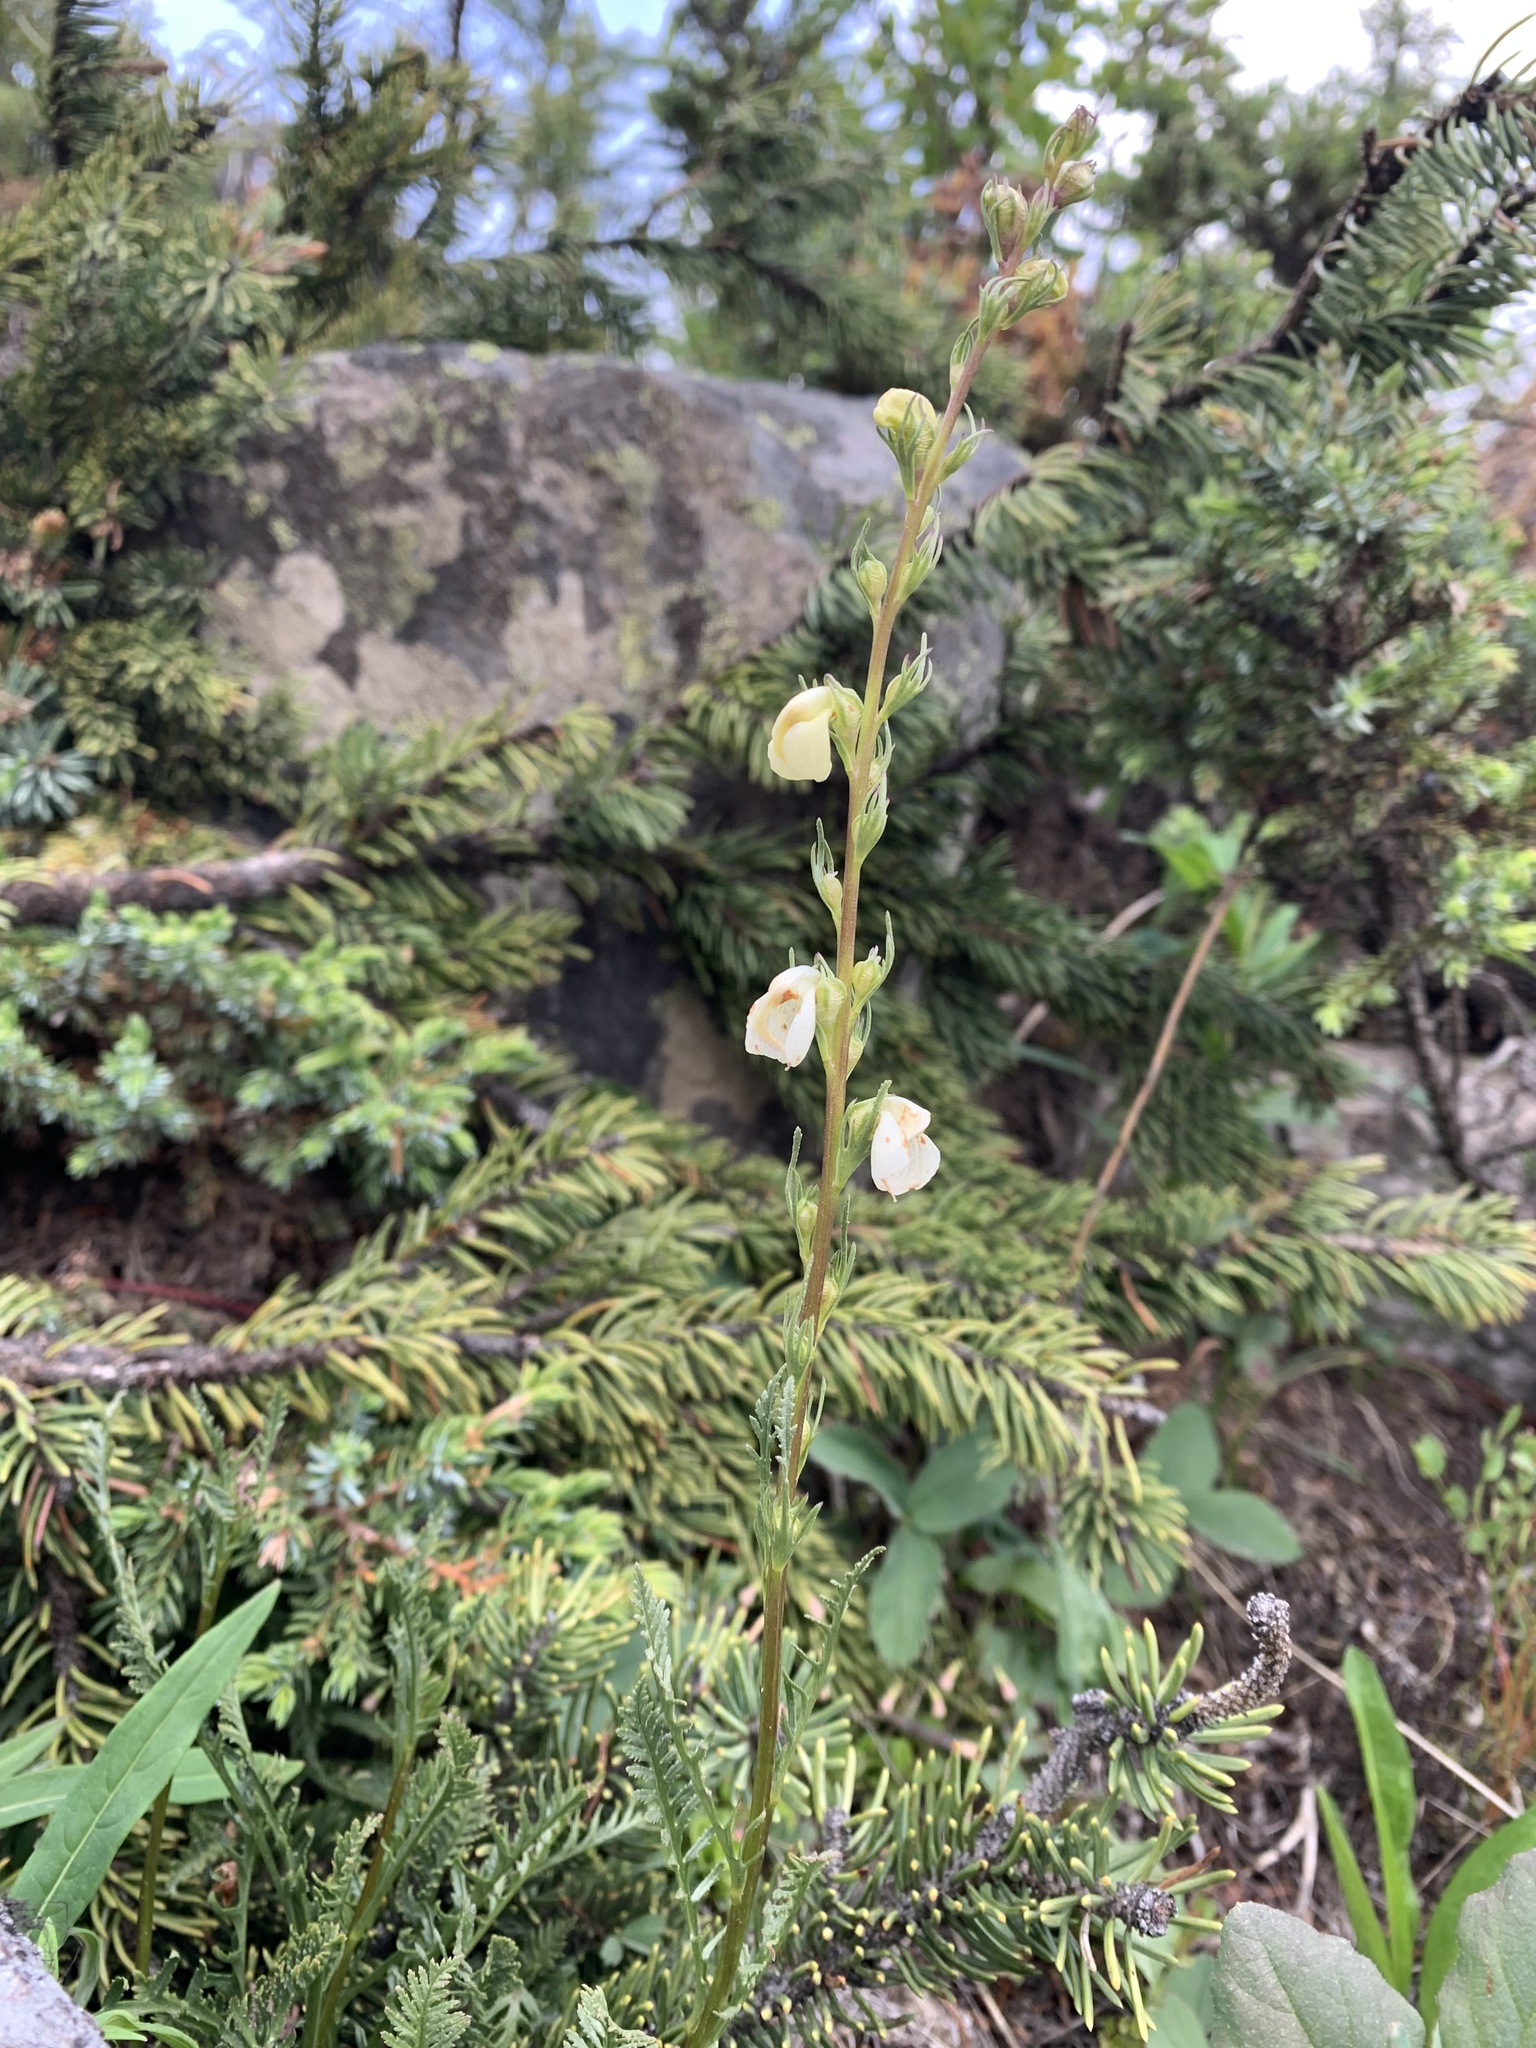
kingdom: Plantae
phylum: Tracheophyta
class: Magnoliopsida
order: Lamiales
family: Orobanchaceae
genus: Pedicularis
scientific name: Pedicularis contorta
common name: Coiled lousewort
